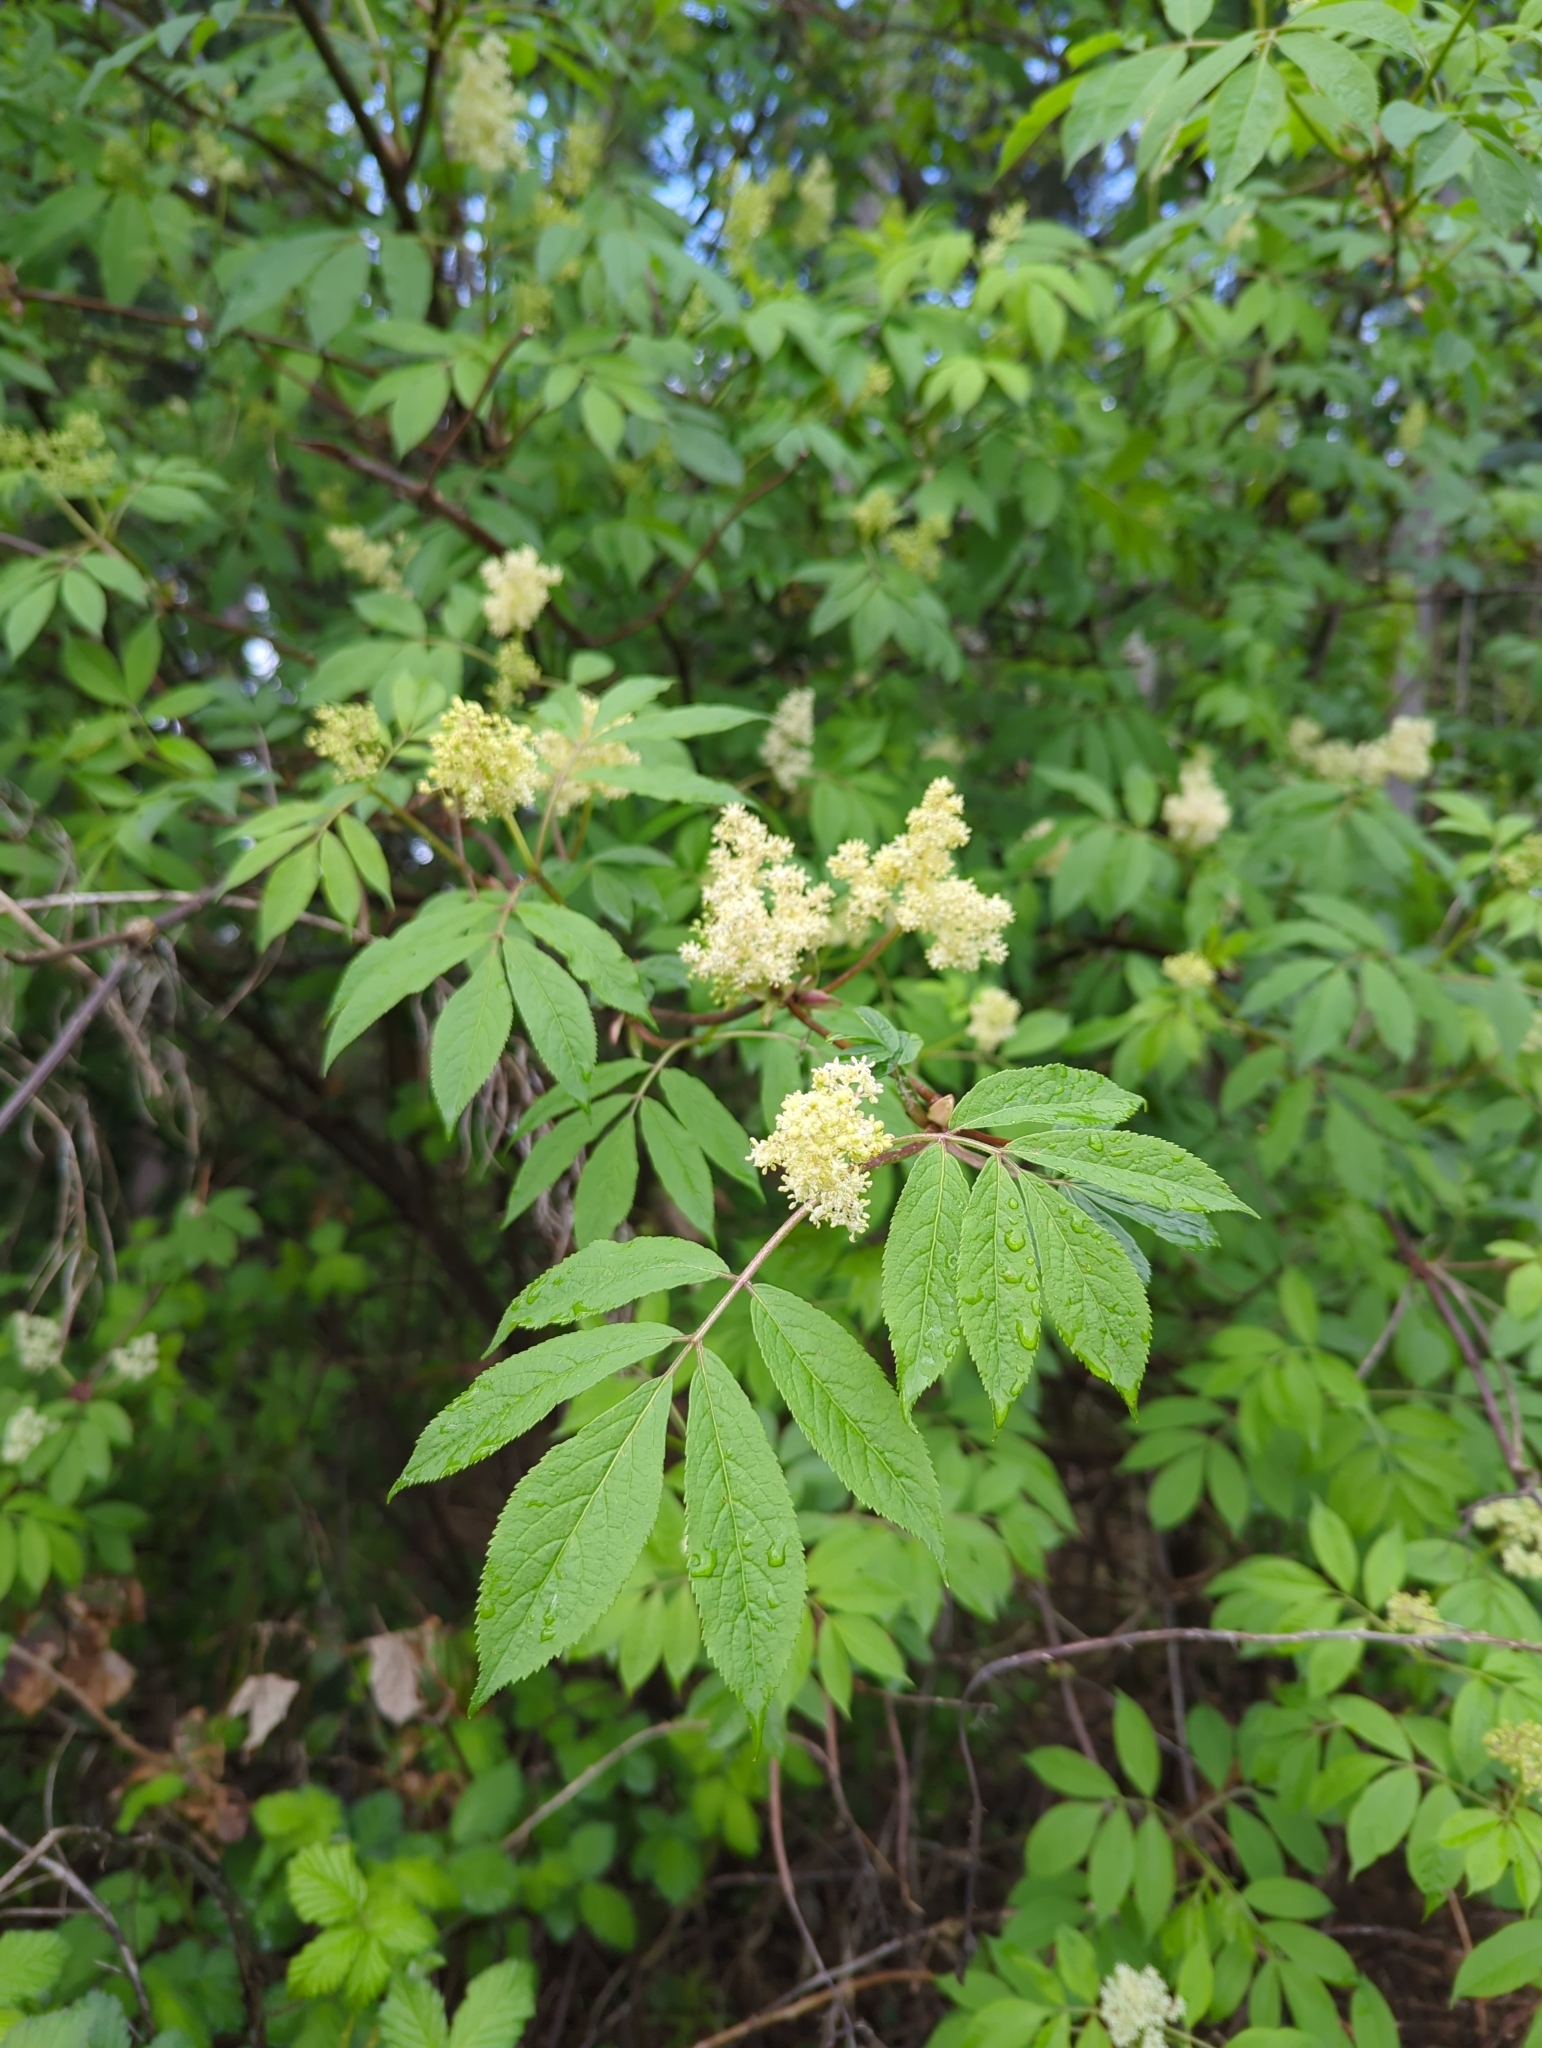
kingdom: Plantae
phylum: Tracheophyta
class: Magnoliopsida
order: Dipsacales
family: Viburnaceae
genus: Sambucus
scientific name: Sambucus racemosa
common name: Red-berried elder
